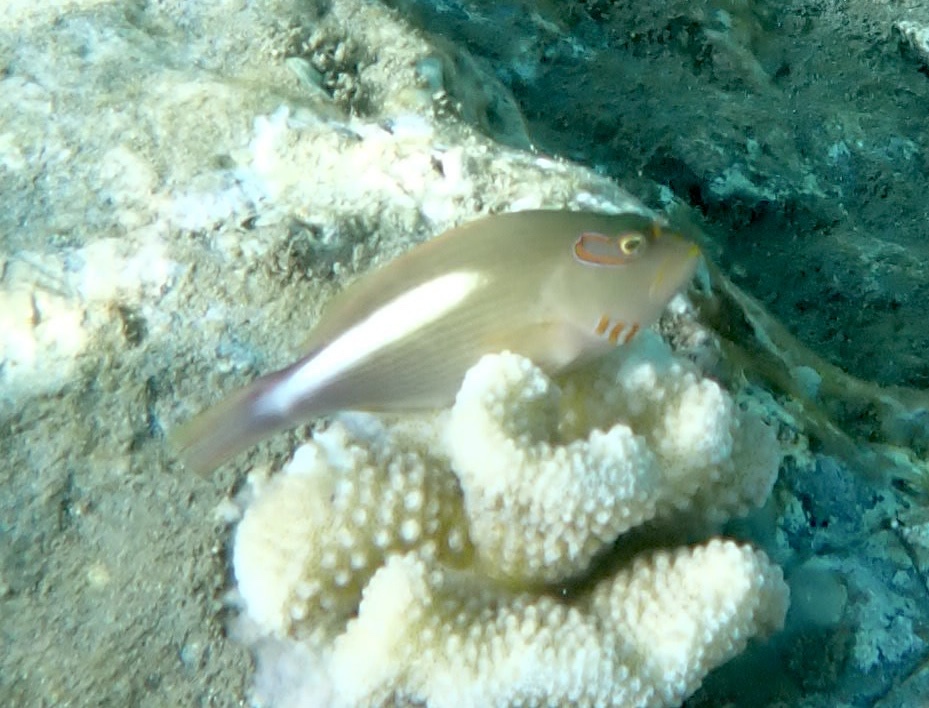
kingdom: Animalia
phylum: Chordata
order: Perciformes
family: Cirrhitidae
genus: Paracirrhites
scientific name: Paracirrhites arcatus
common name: Arc-eye hawkfish
